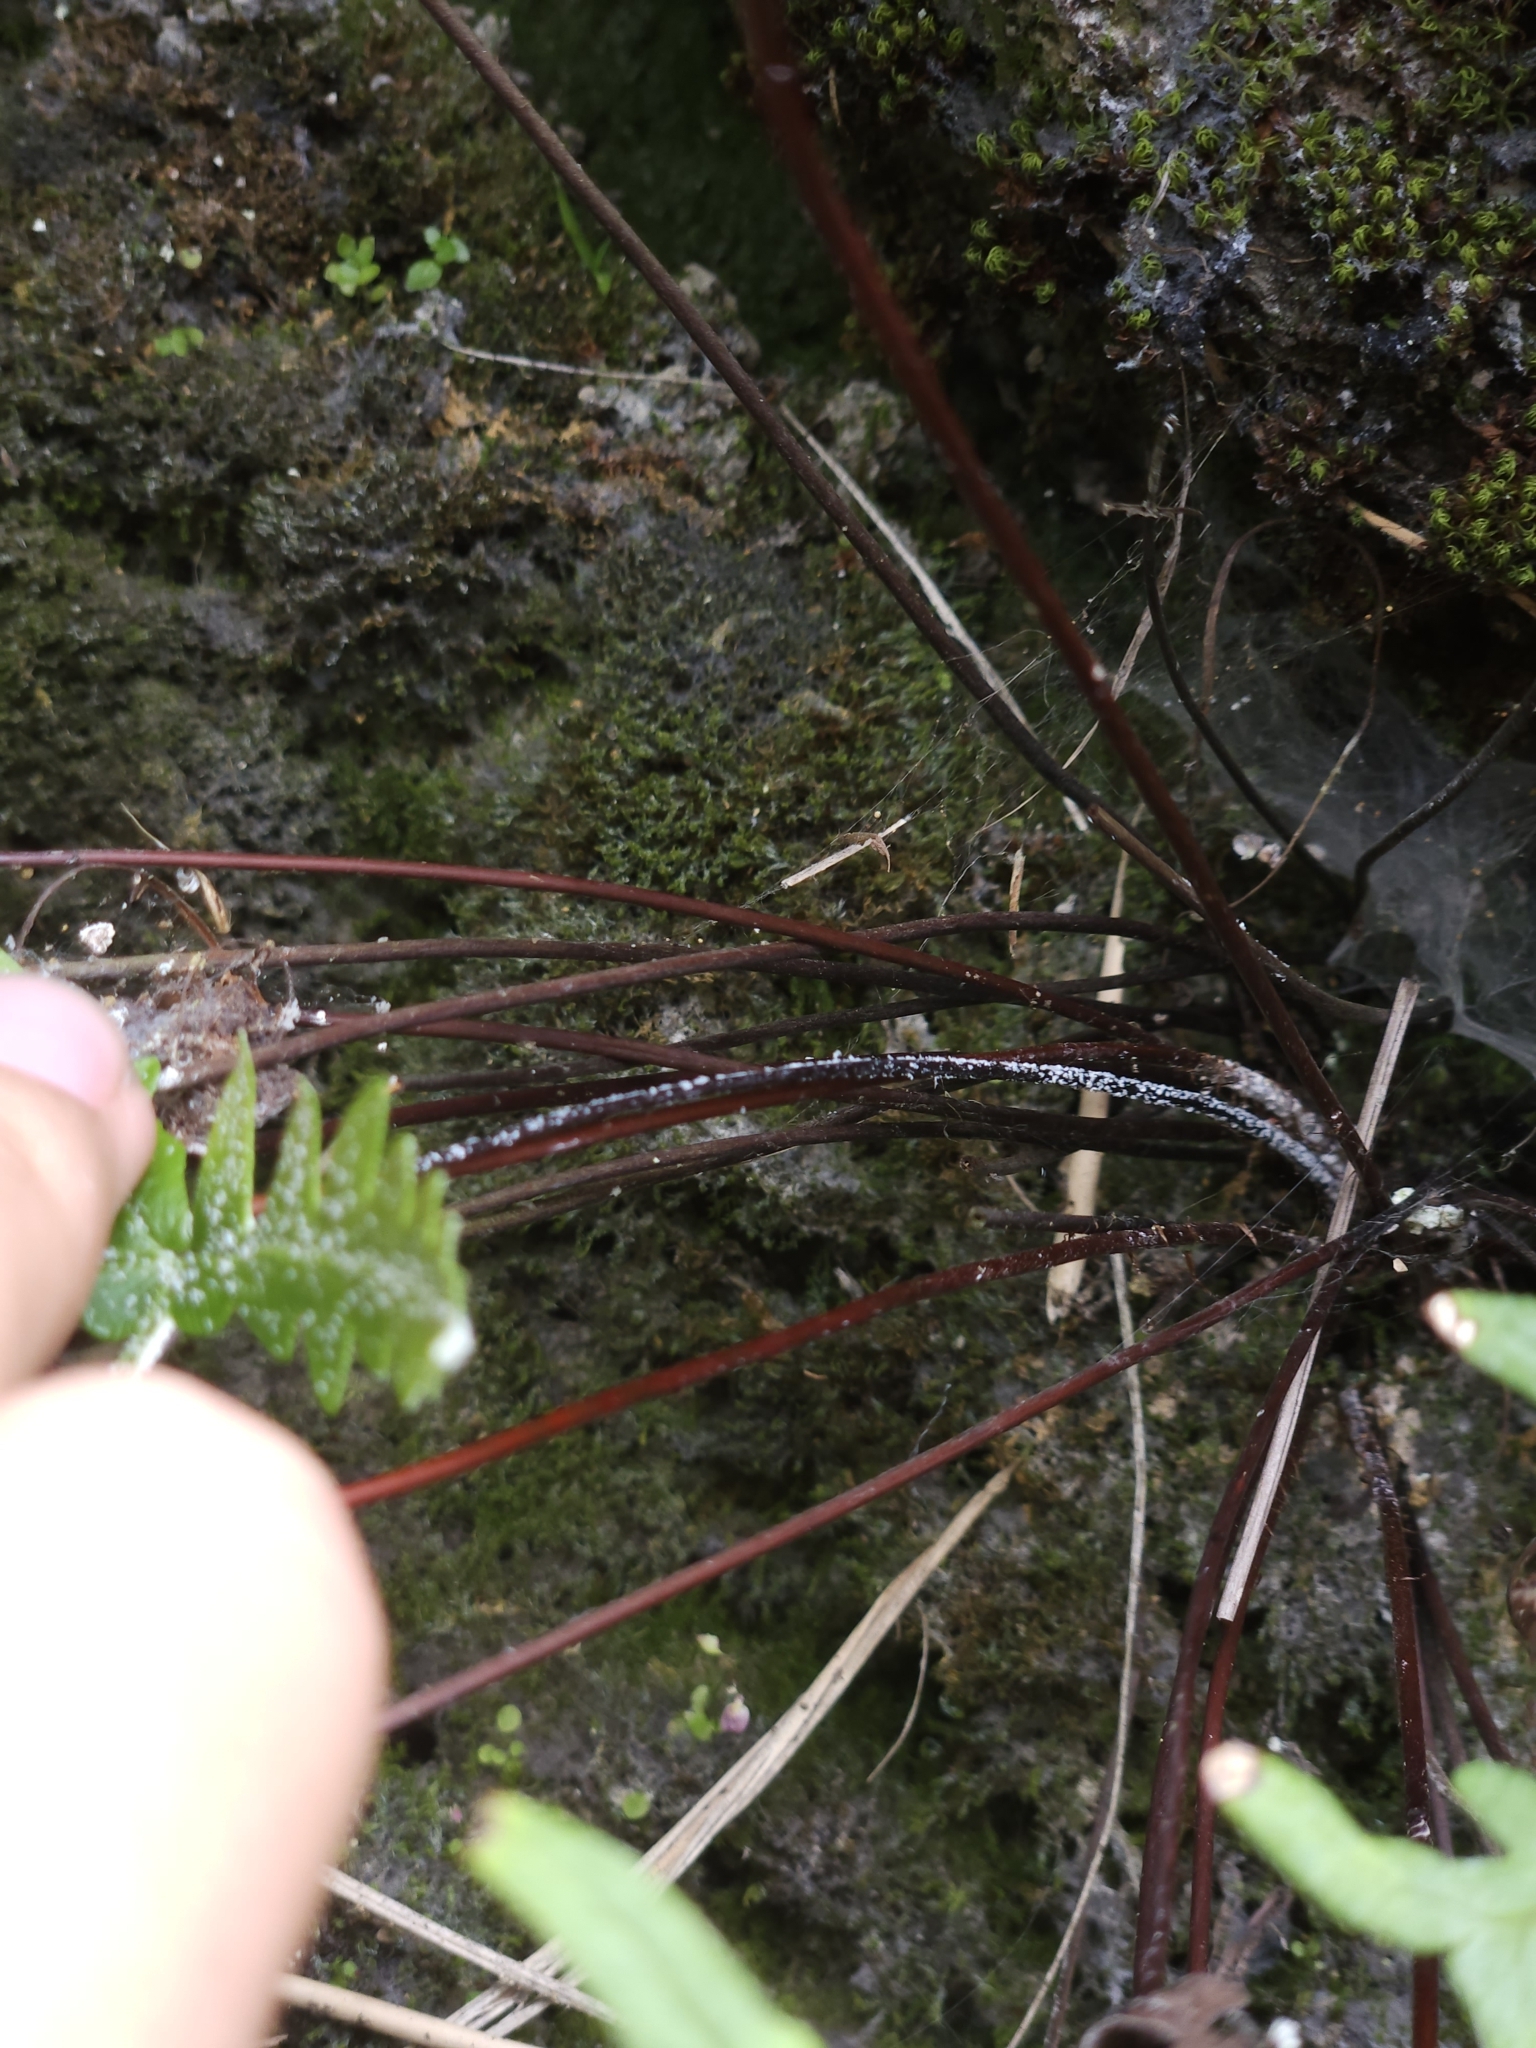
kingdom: Plantae
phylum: Tracheophyta
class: Polypodiopsida
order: Polypodiales
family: Pteridaceae
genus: Aleuritopteris
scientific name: Aleuritopteris argentea
